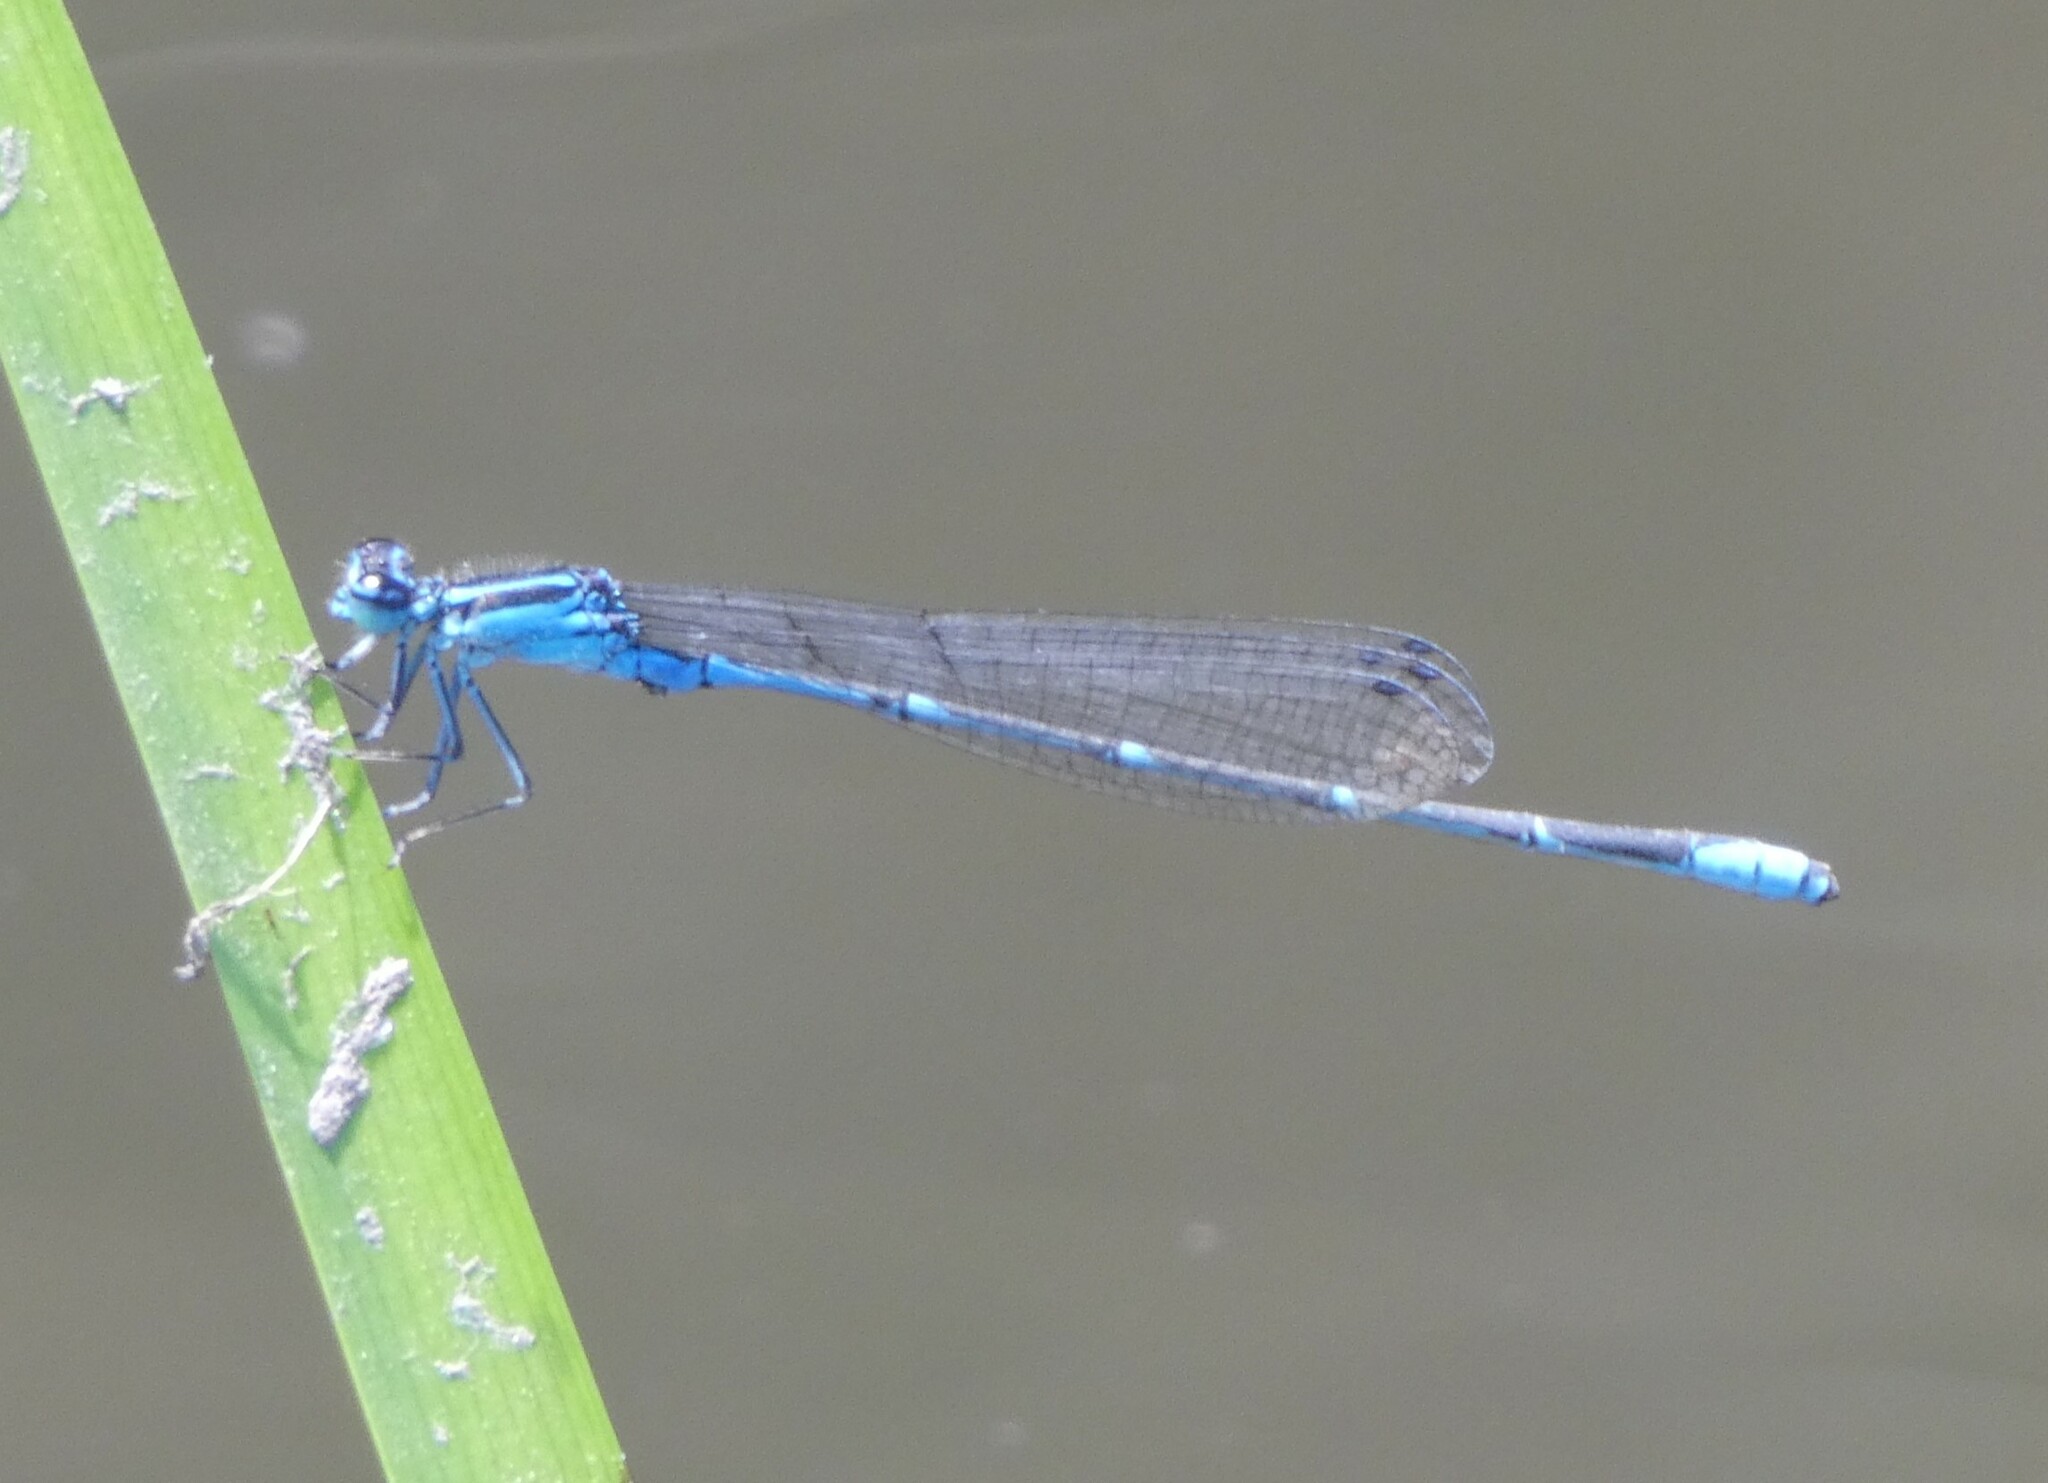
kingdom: Animalia
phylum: Arthropoda
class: Insecta
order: Odonata
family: Coenagrionidae
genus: Enallagma
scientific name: Enallagma exsulans
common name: Stream bluet
